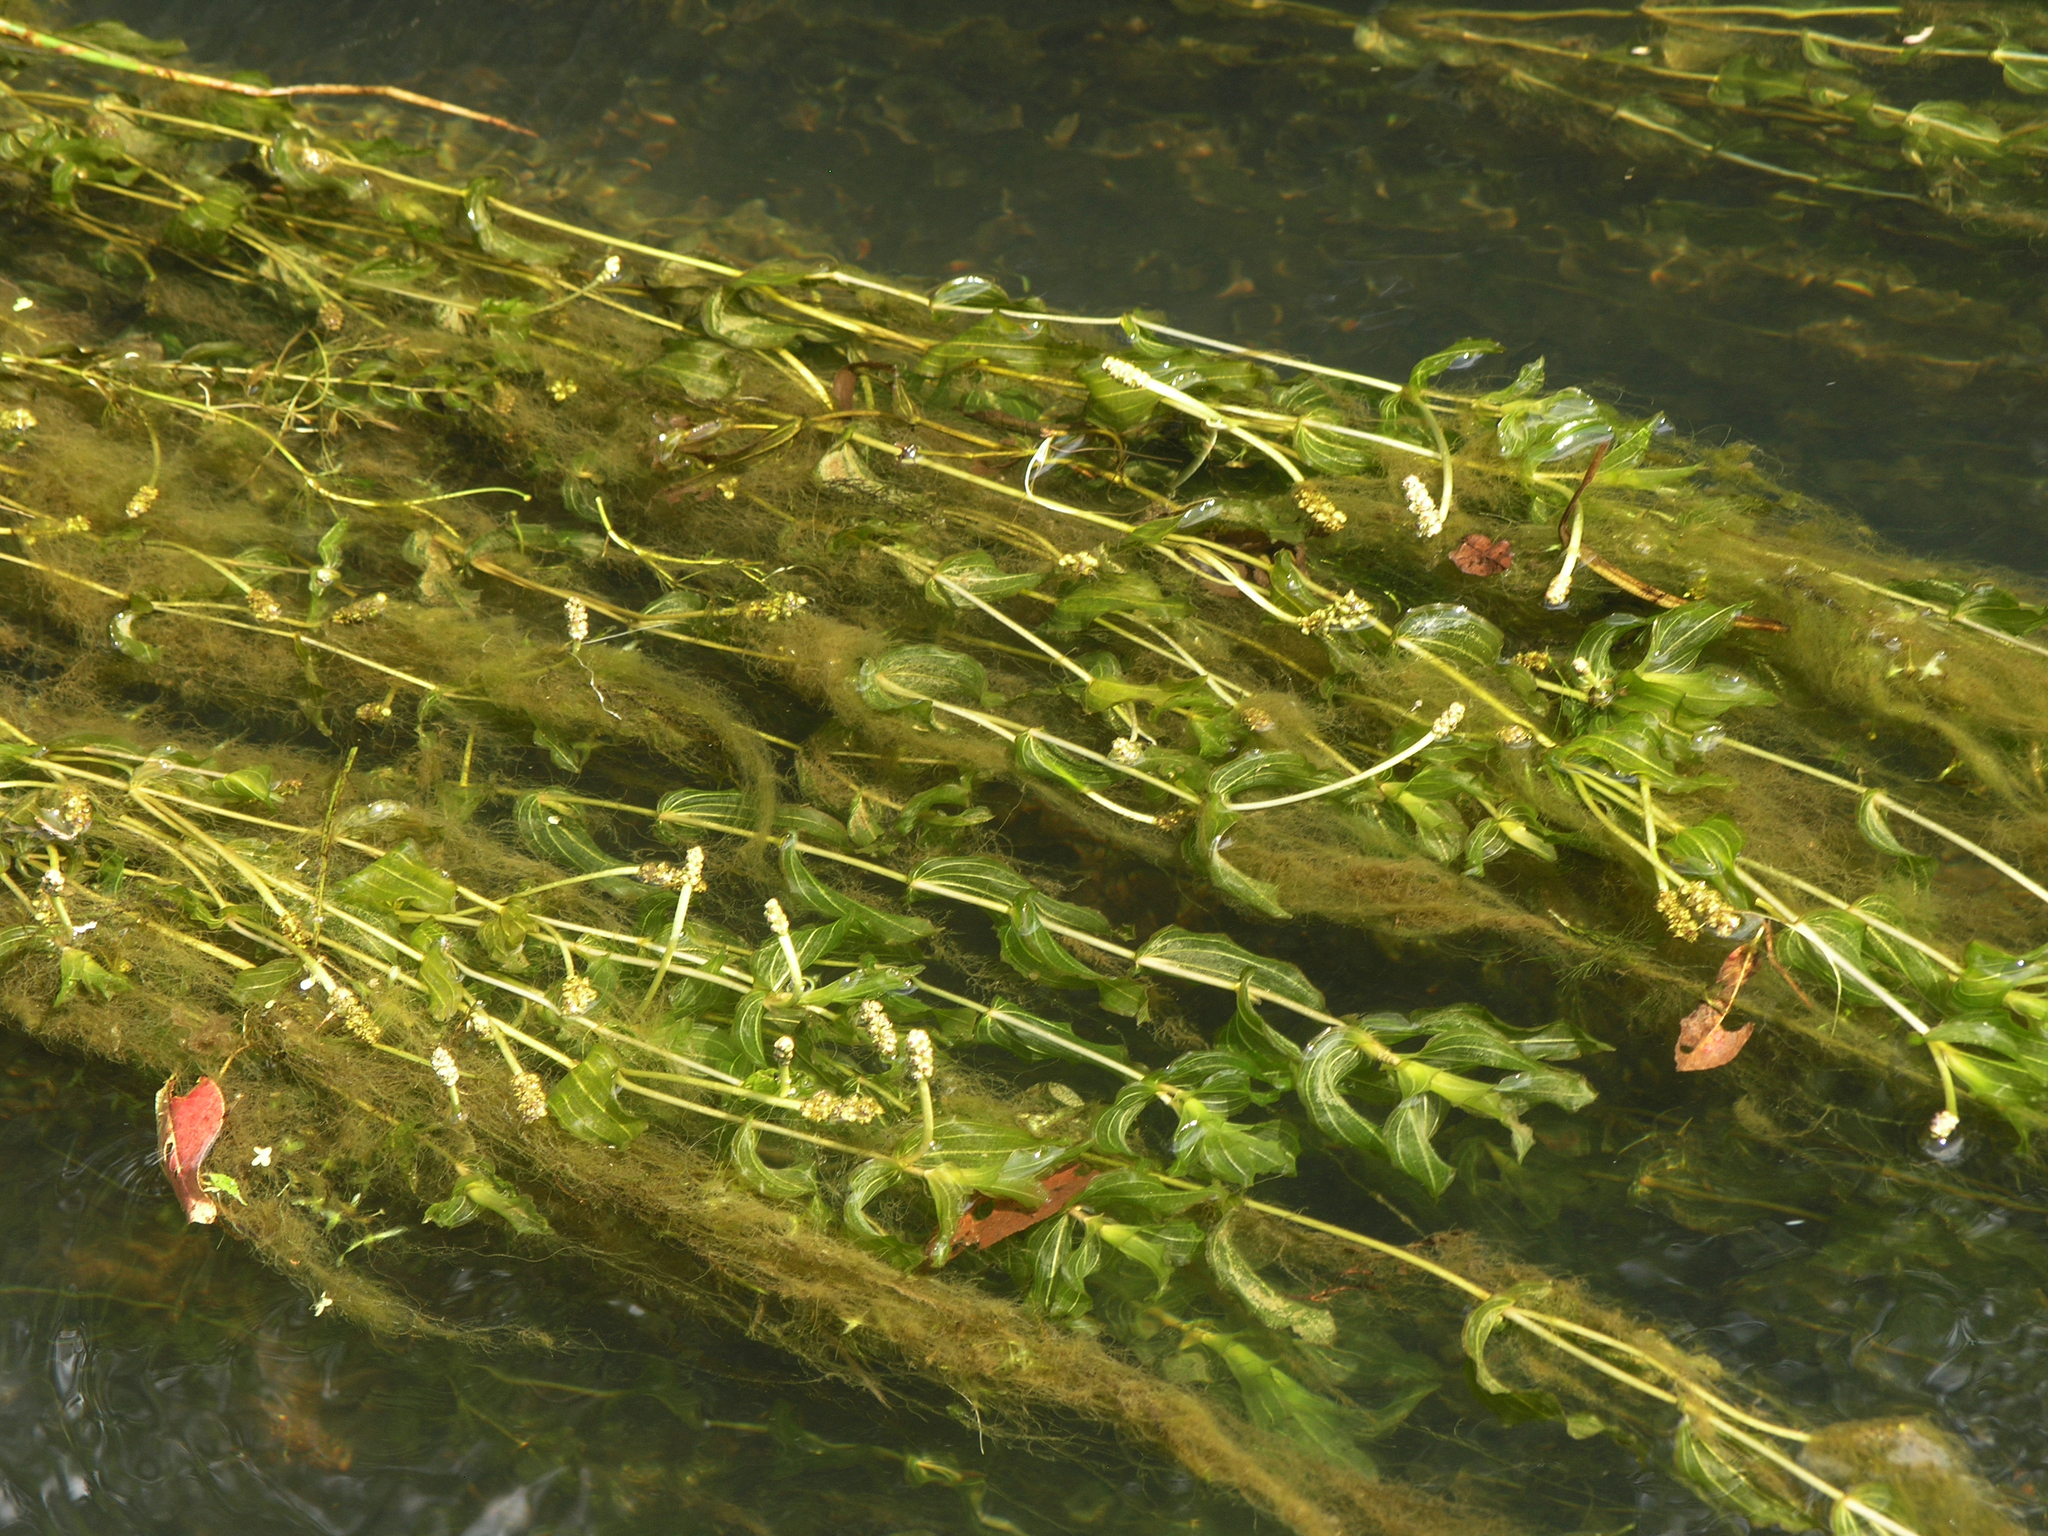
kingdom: Plantae
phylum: Tracheophyta
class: Liliopsida
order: Alismatales
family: Potamogetonaceae
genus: Potamogeton
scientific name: Potamogeton perfoliatus
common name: Perfoliate pondweed
